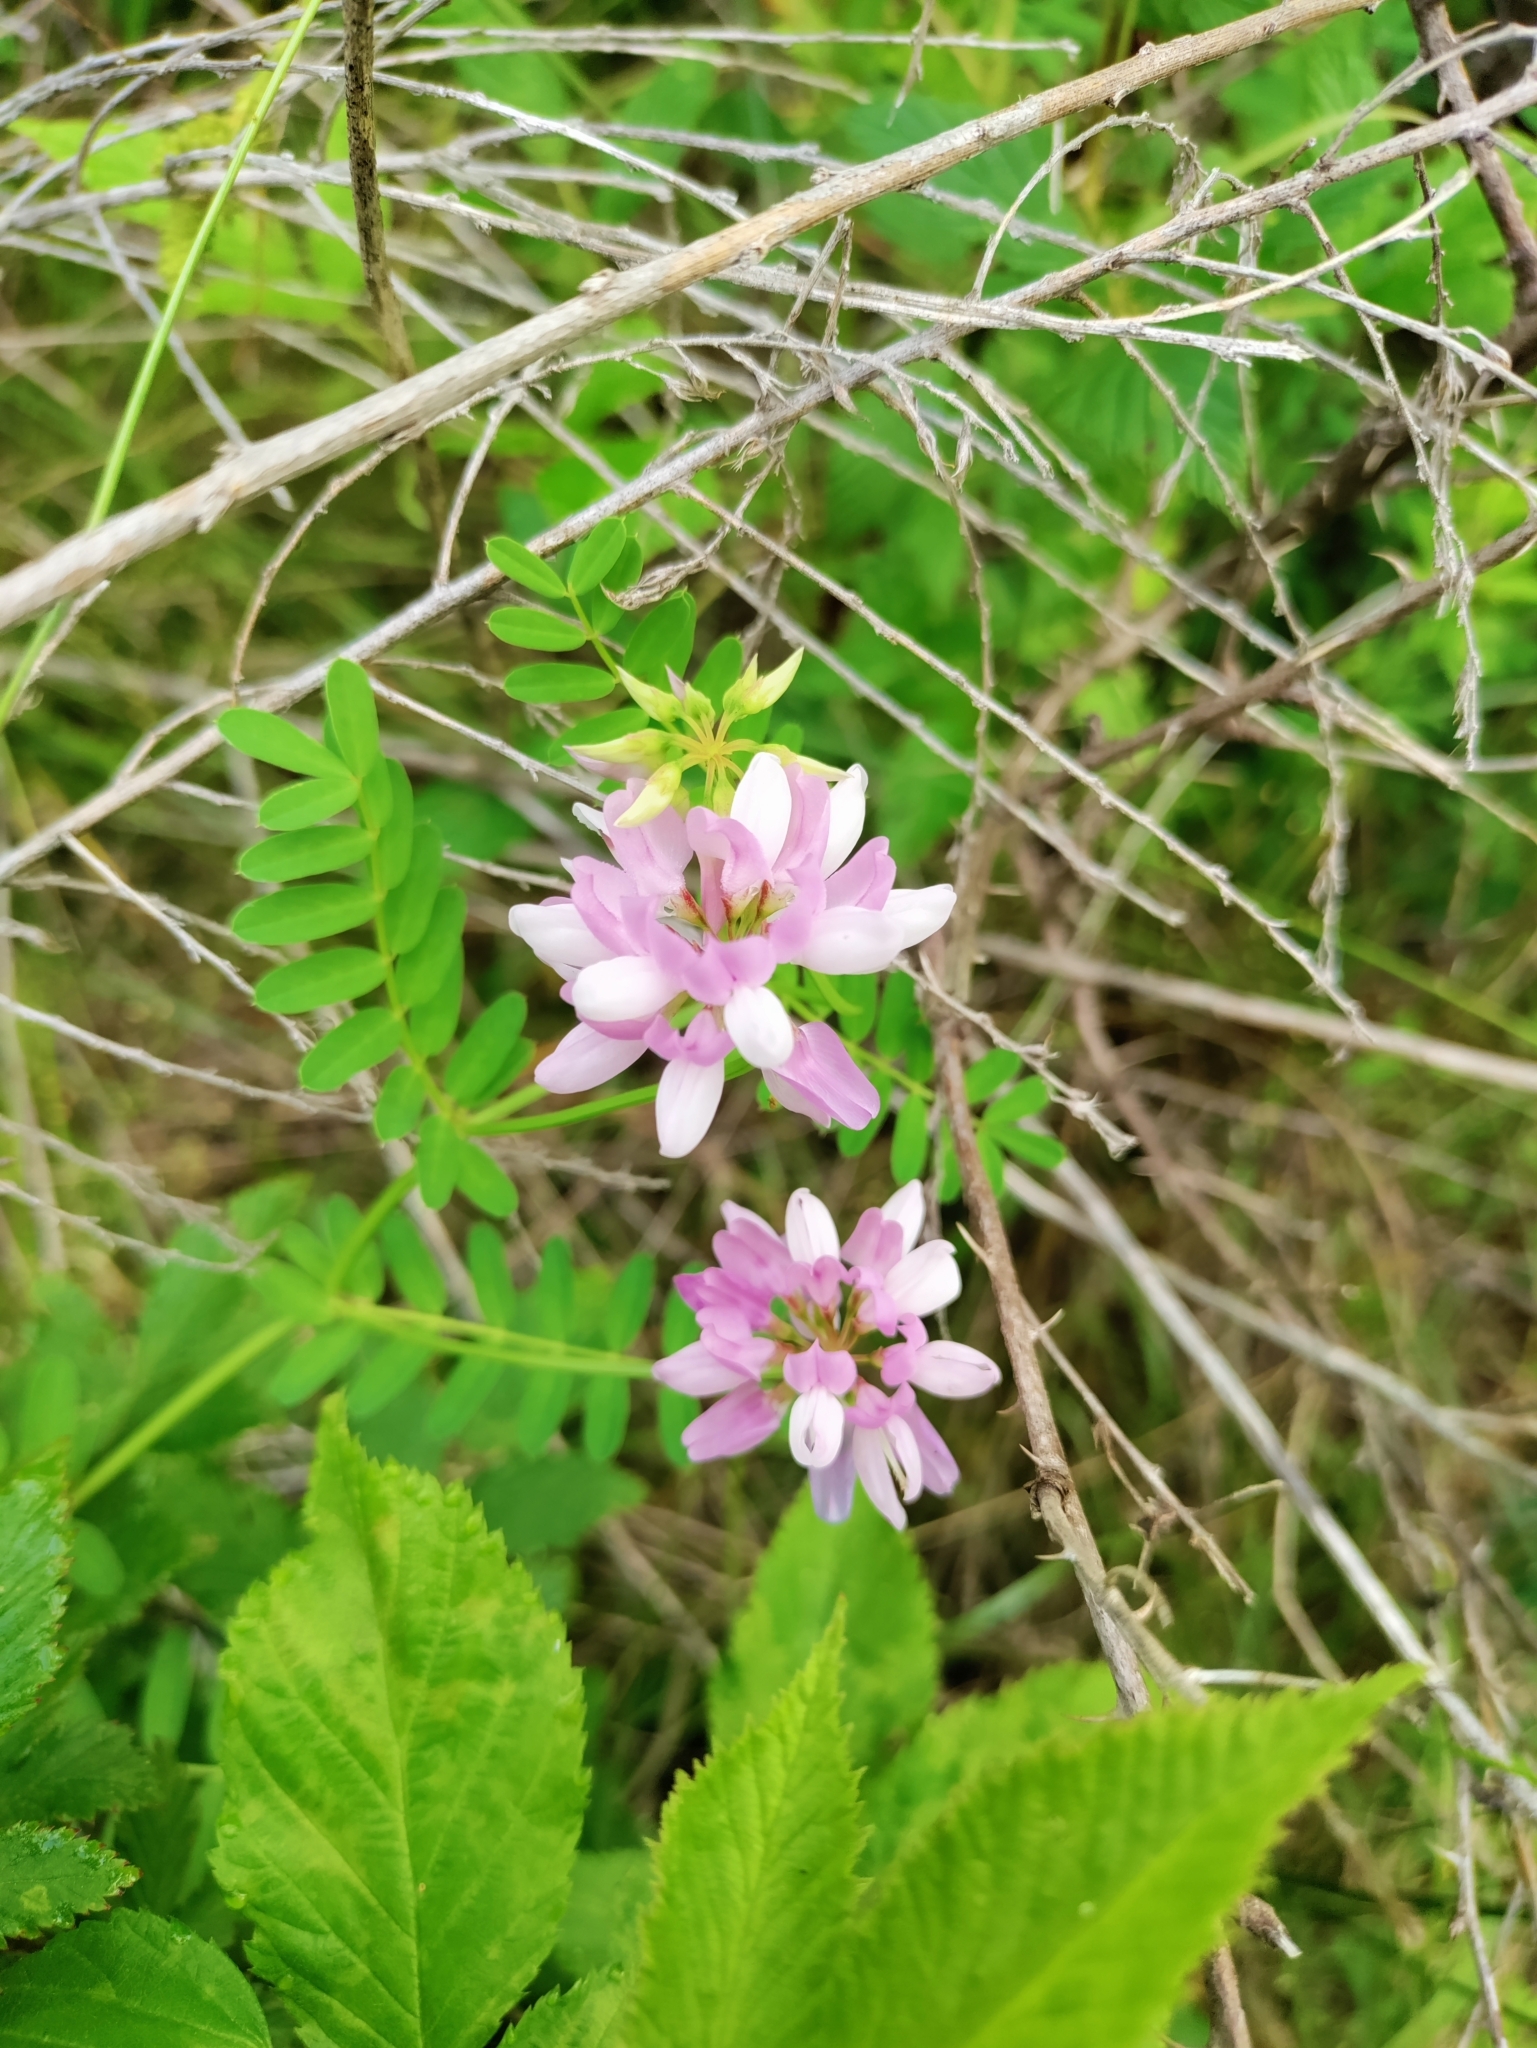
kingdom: Plantae
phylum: Tracheophyta
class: Magnoliopsida
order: Fabales
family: Fabaceae
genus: Coronilla
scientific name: Coronilla varia
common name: Crownvetch
